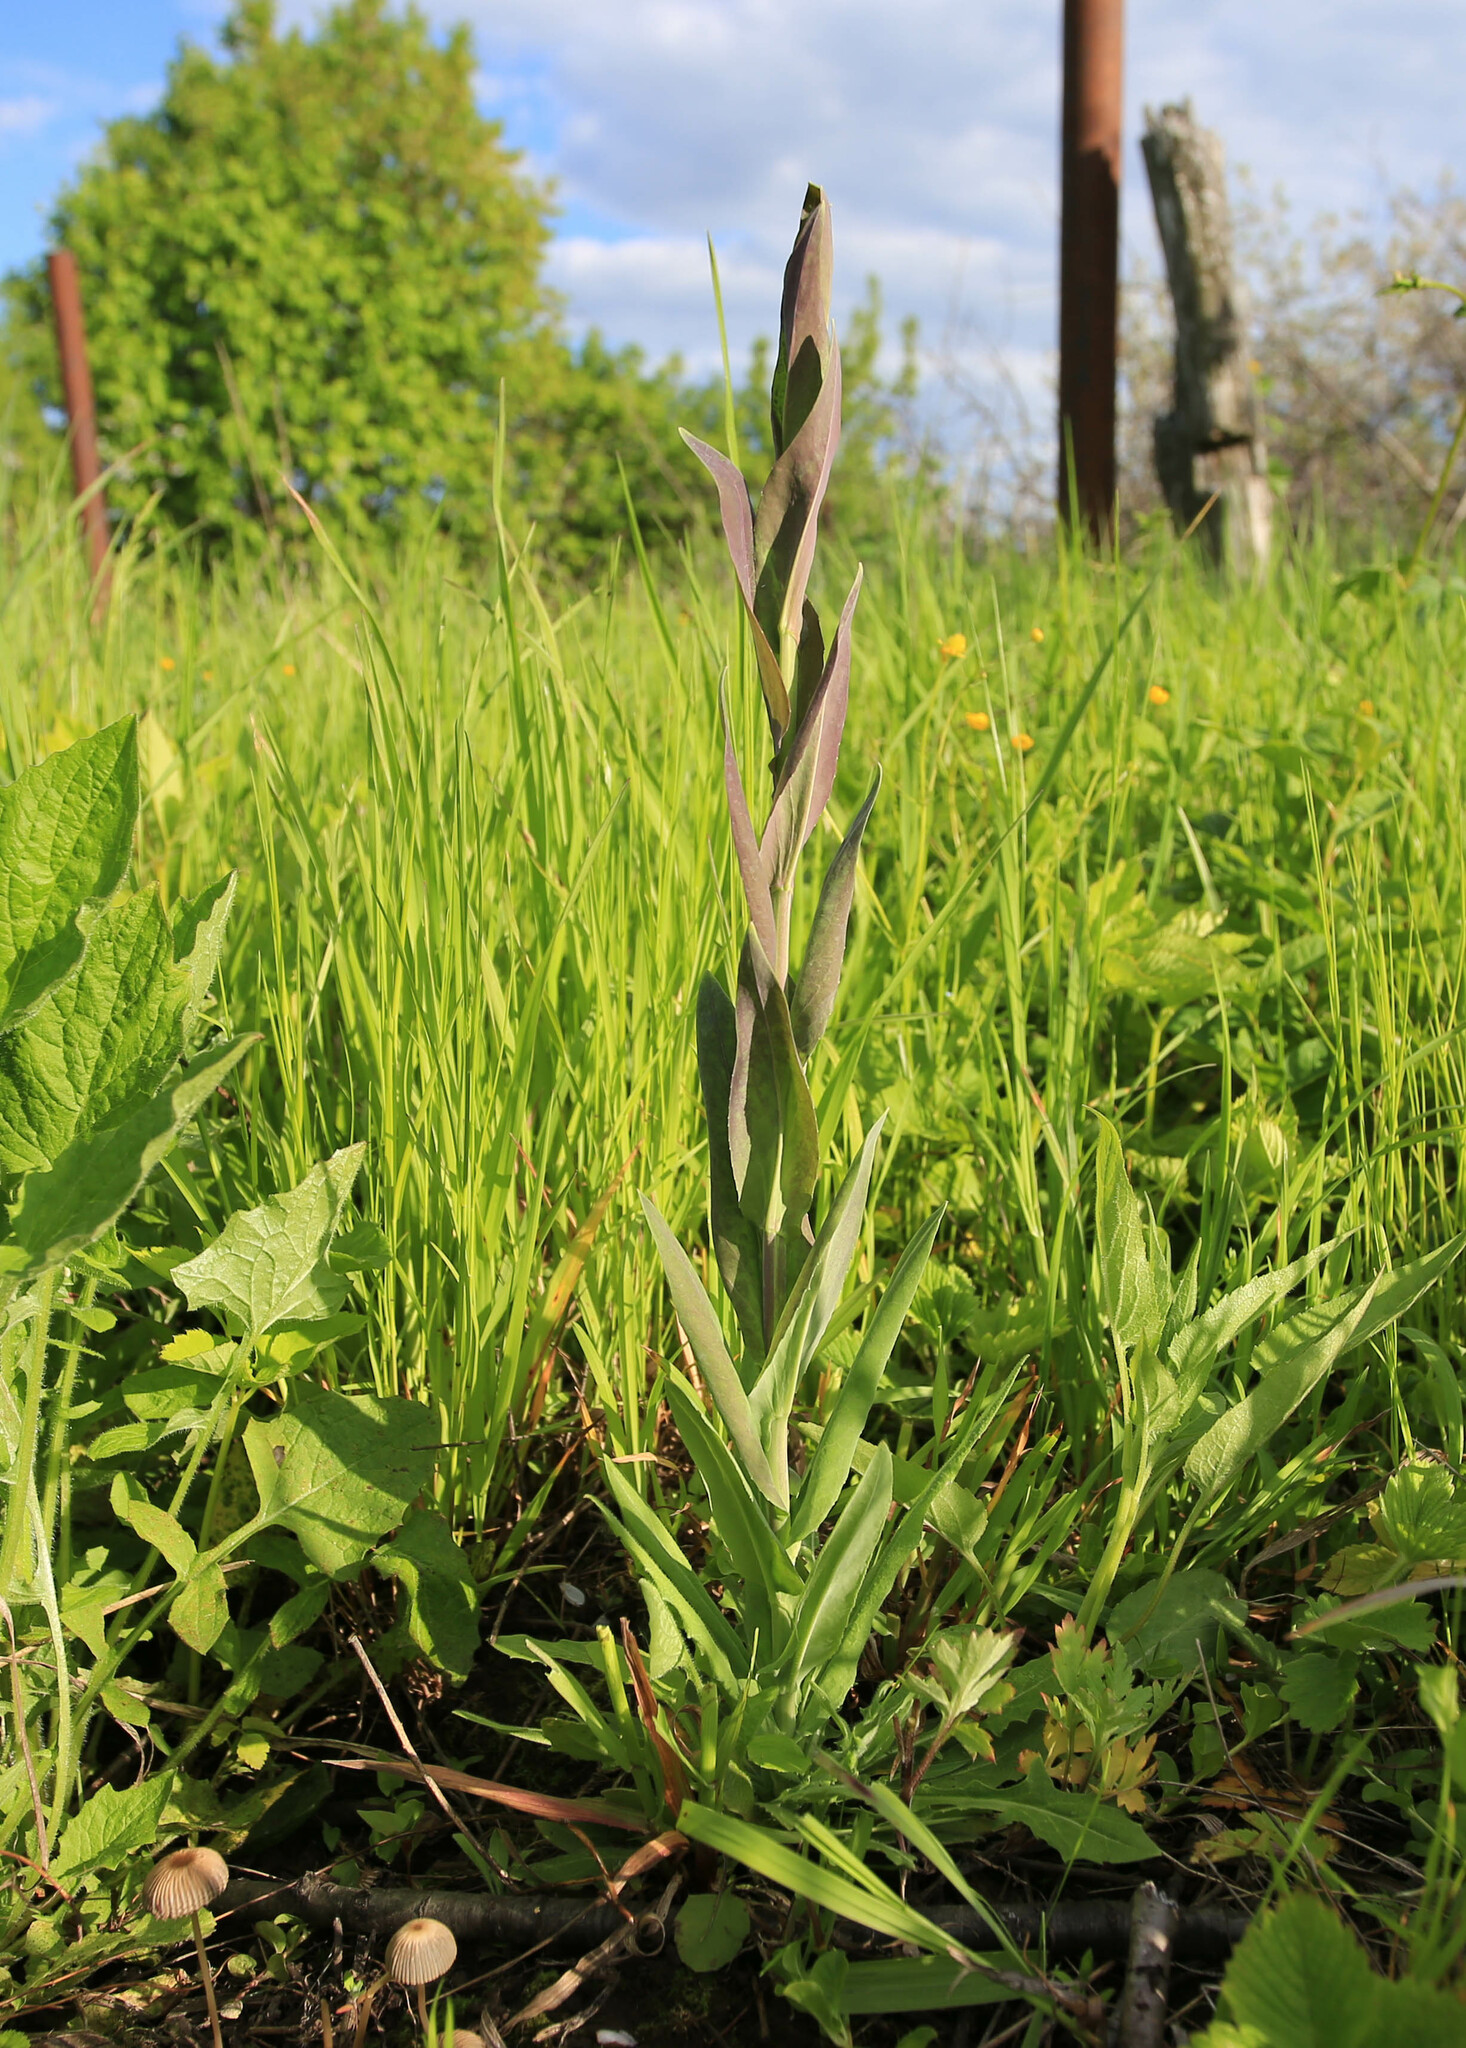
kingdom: Plantae
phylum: Tracheophyta
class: Magnoliopsida
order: Brassicales
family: Brassicaceae
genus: Turritis
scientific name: Turritis glabra
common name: Tower rockcress
